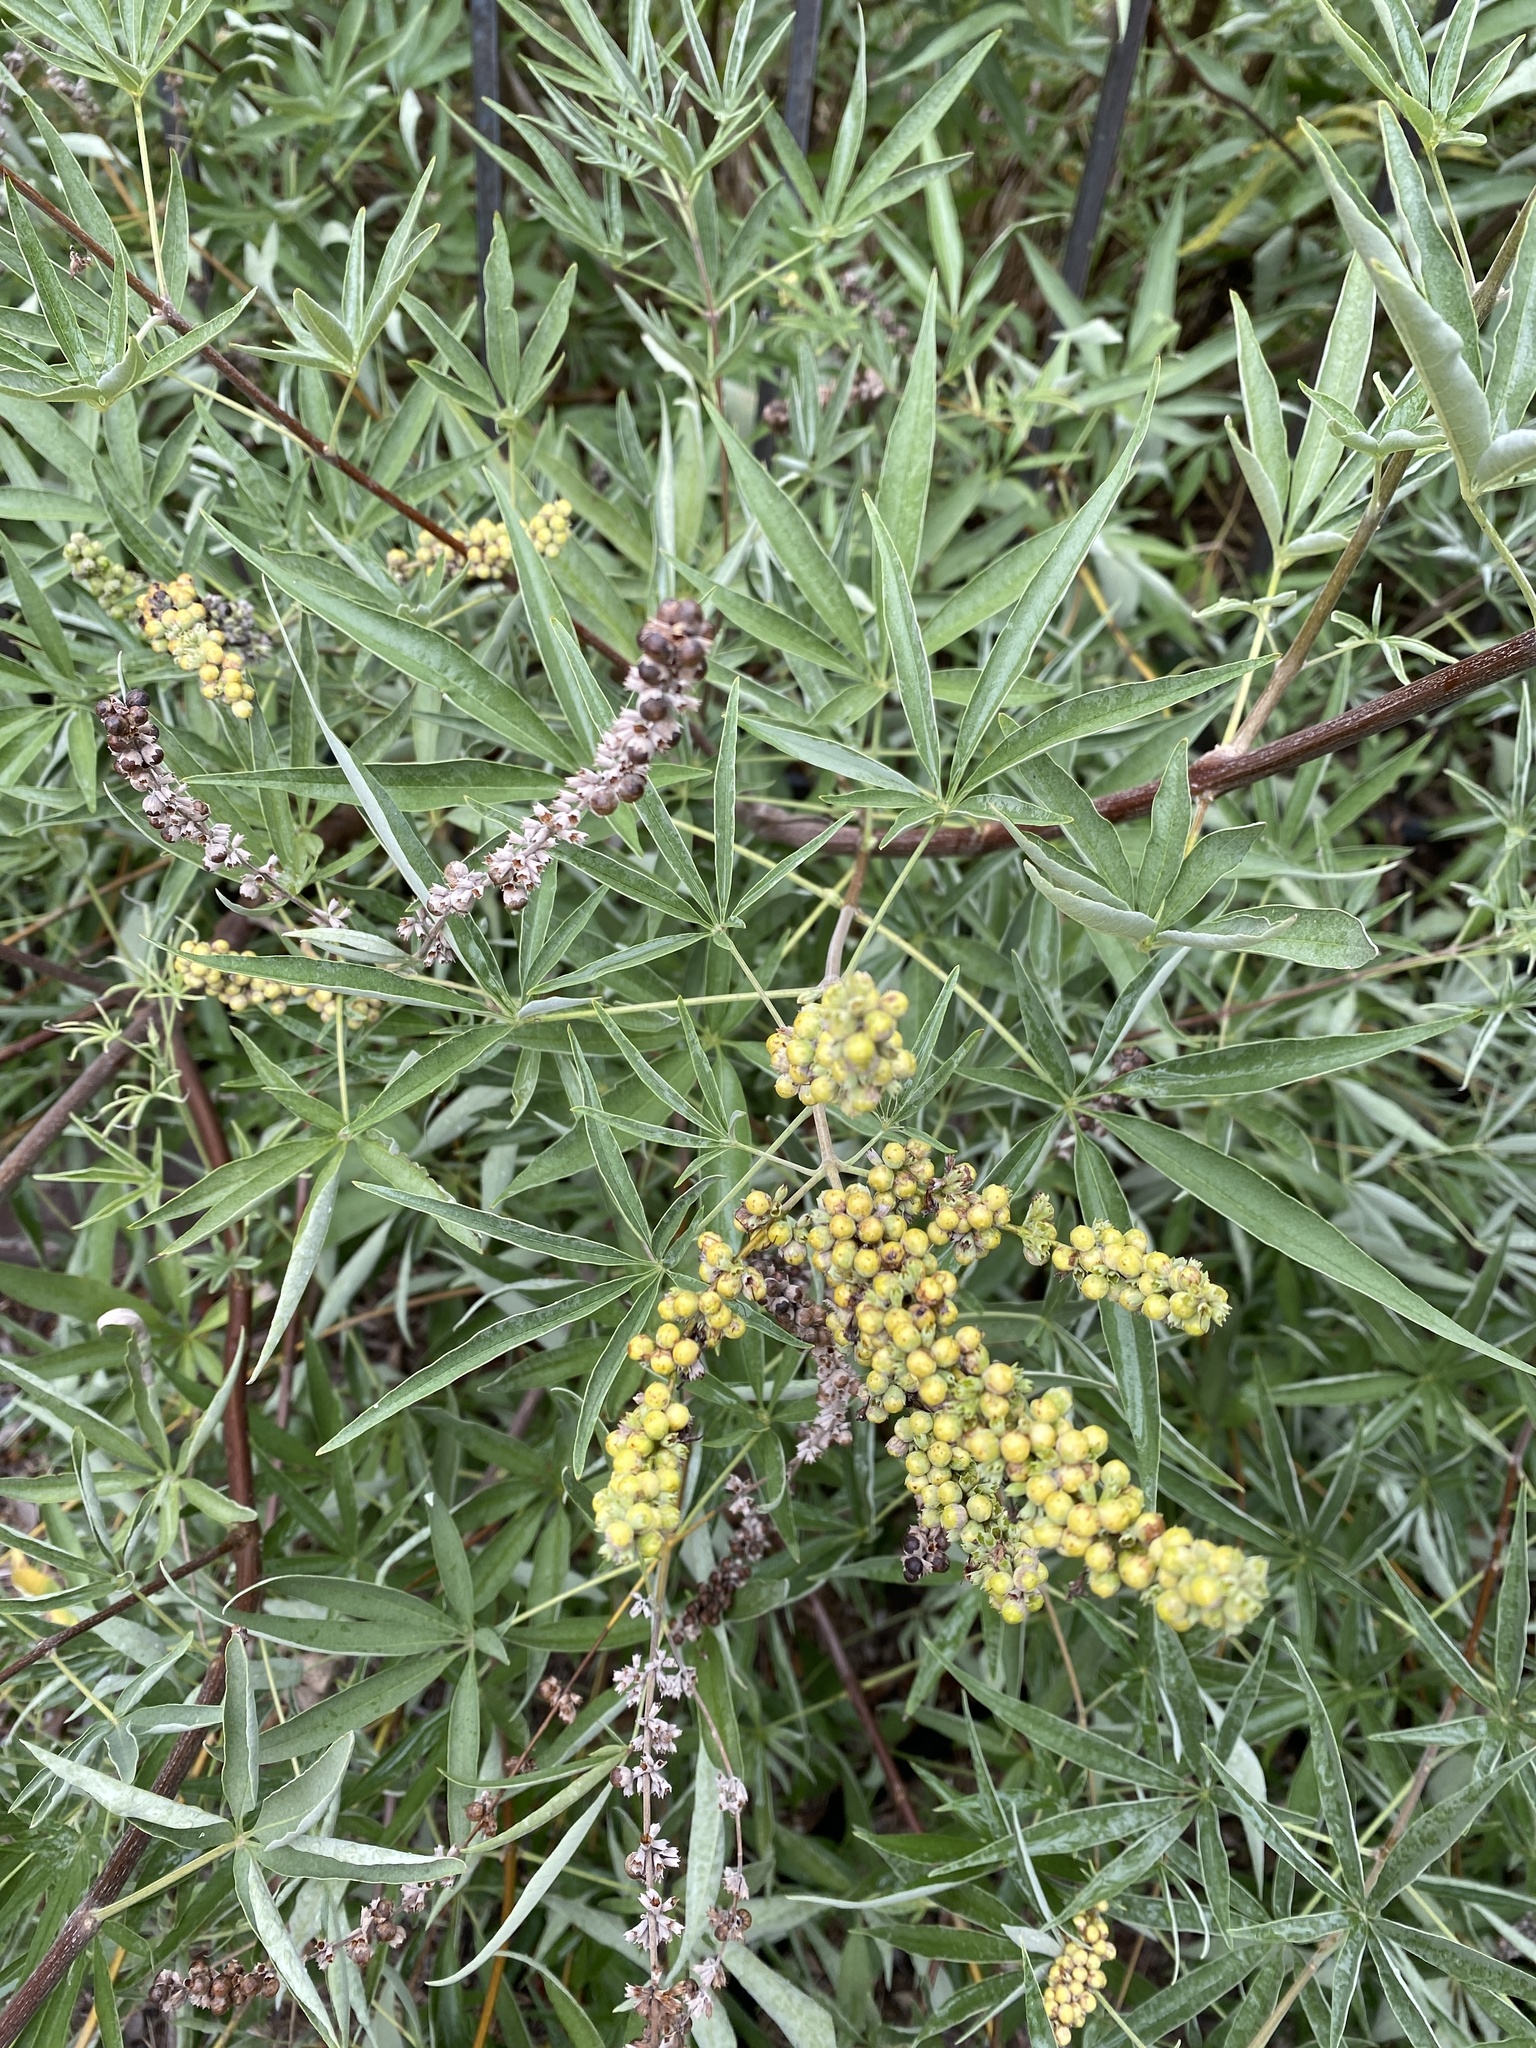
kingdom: Plantae
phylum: Tracheophyta
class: Magnoliopsida
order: Lamiales
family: Lamiaceae
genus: Vitex
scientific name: Vitex agnus-castus
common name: Chasteberry
